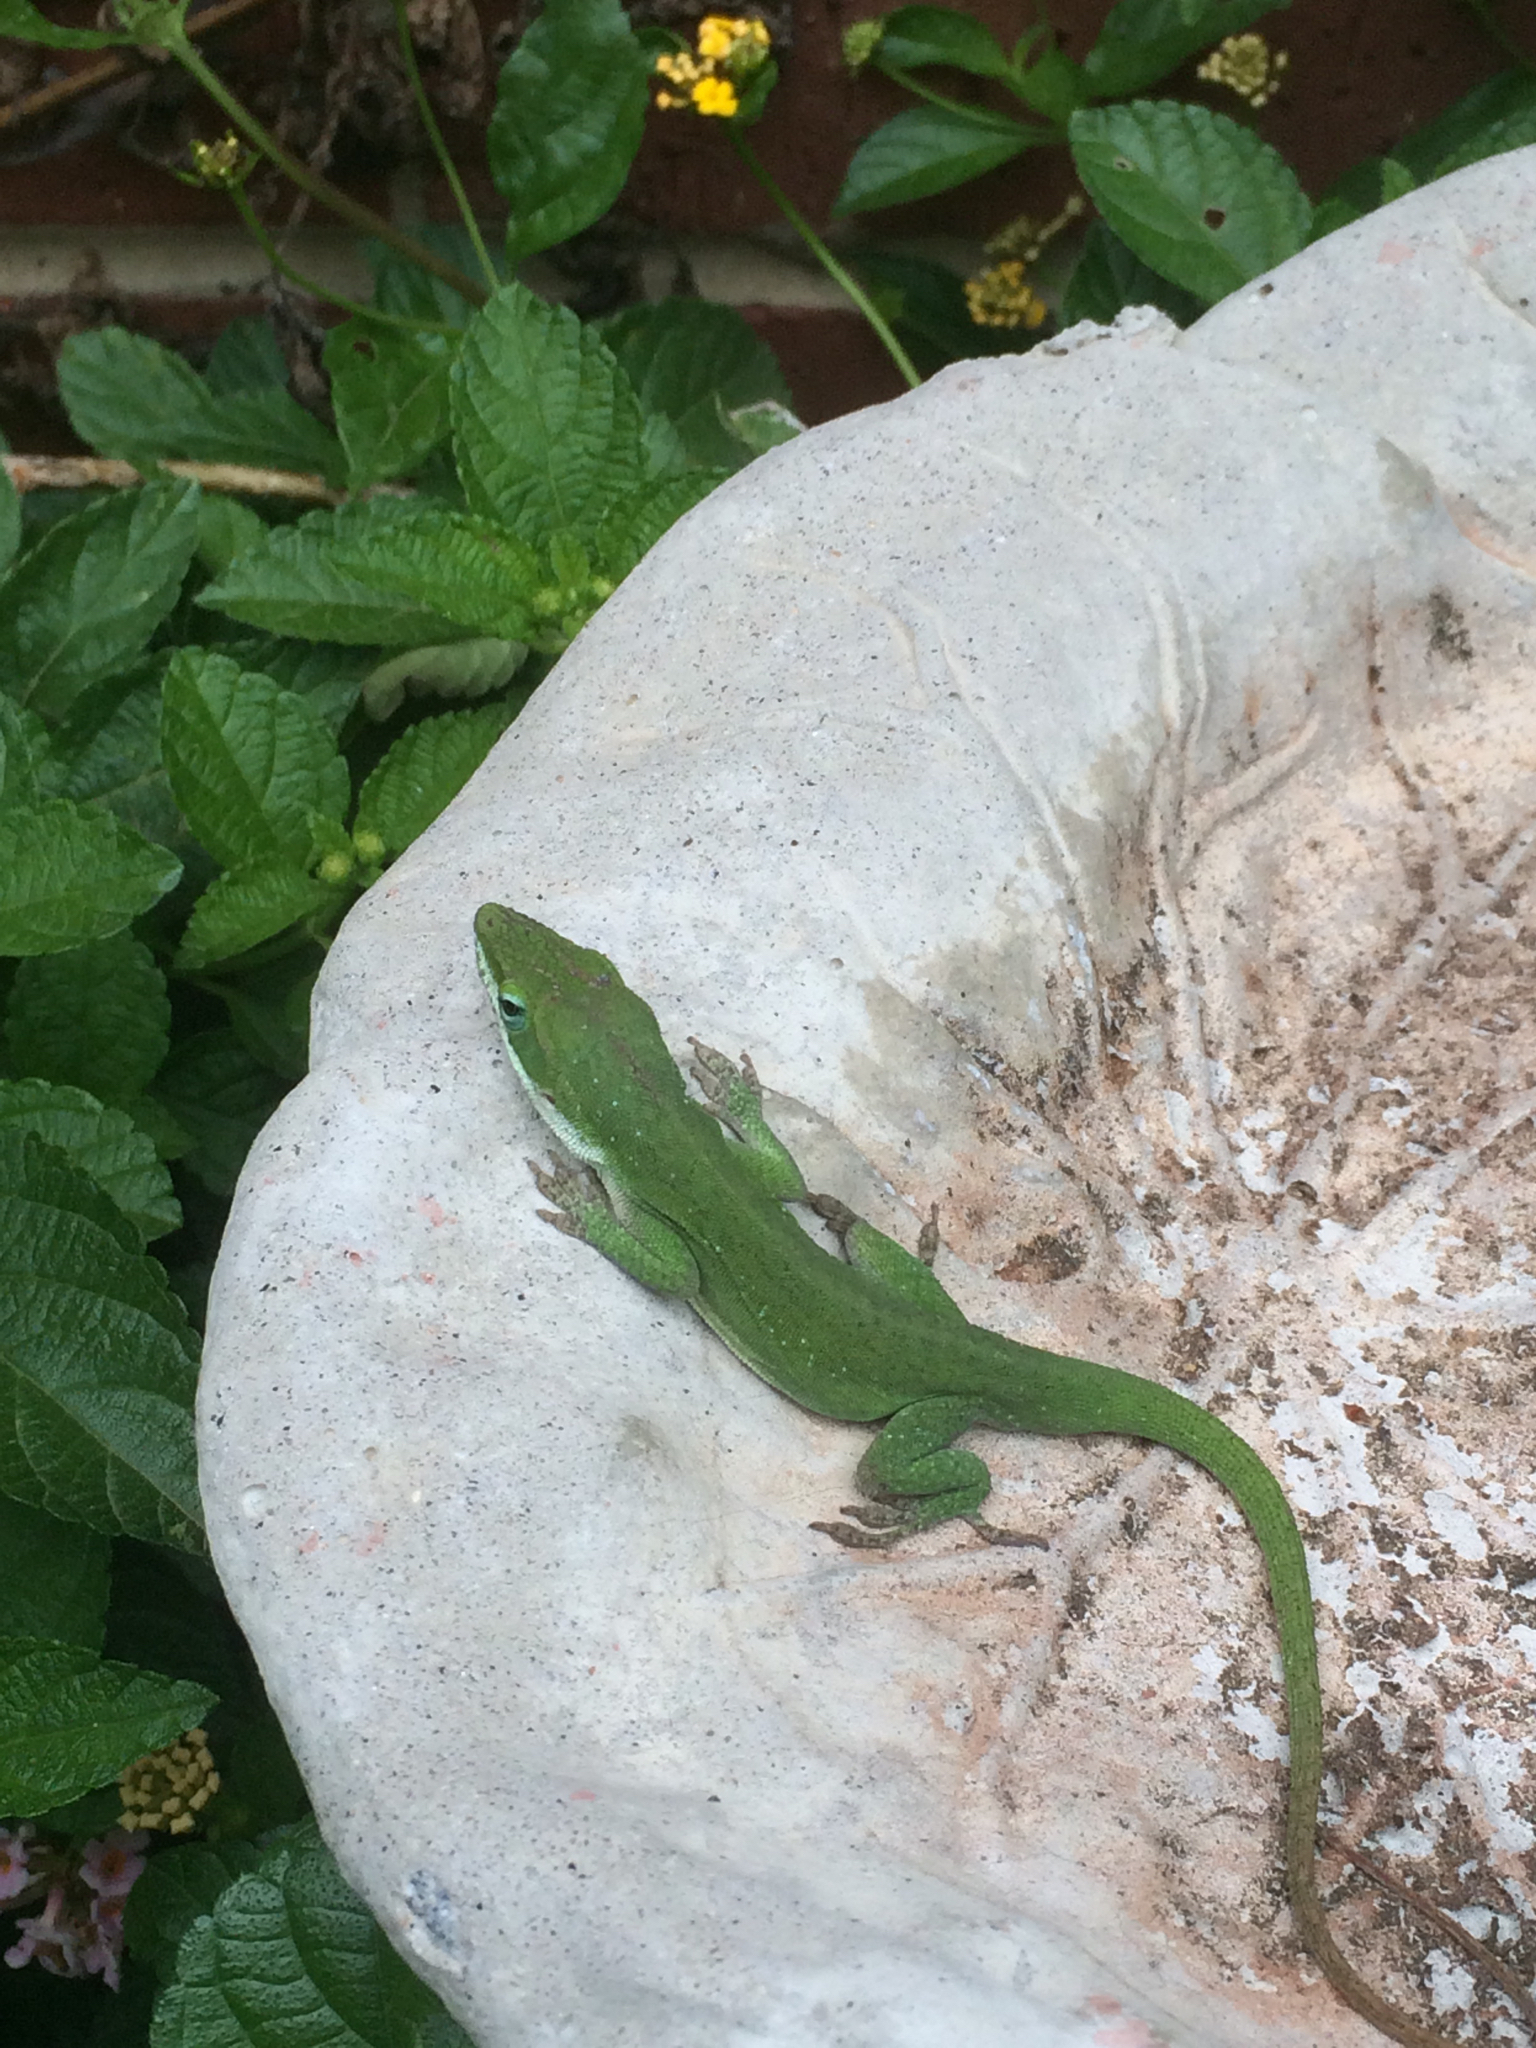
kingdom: Animalia
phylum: Chordata
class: Squamata
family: Dactyloidae
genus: Anolis
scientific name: Anolis carolinensis
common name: Green anole
